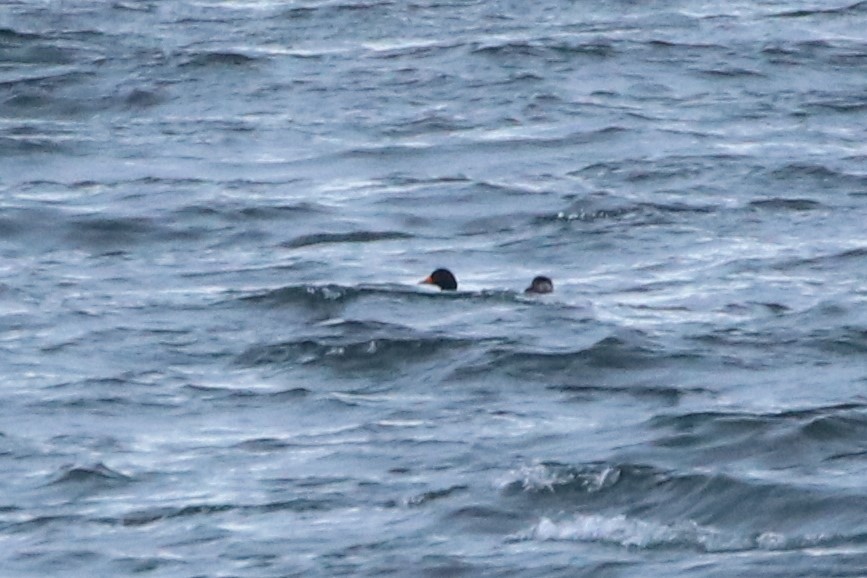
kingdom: Animalia
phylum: Chordata
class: Aves
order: Anseriformes
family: Anatidae
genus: Melanitta
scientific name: Melanitta americana
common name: Black scoter
